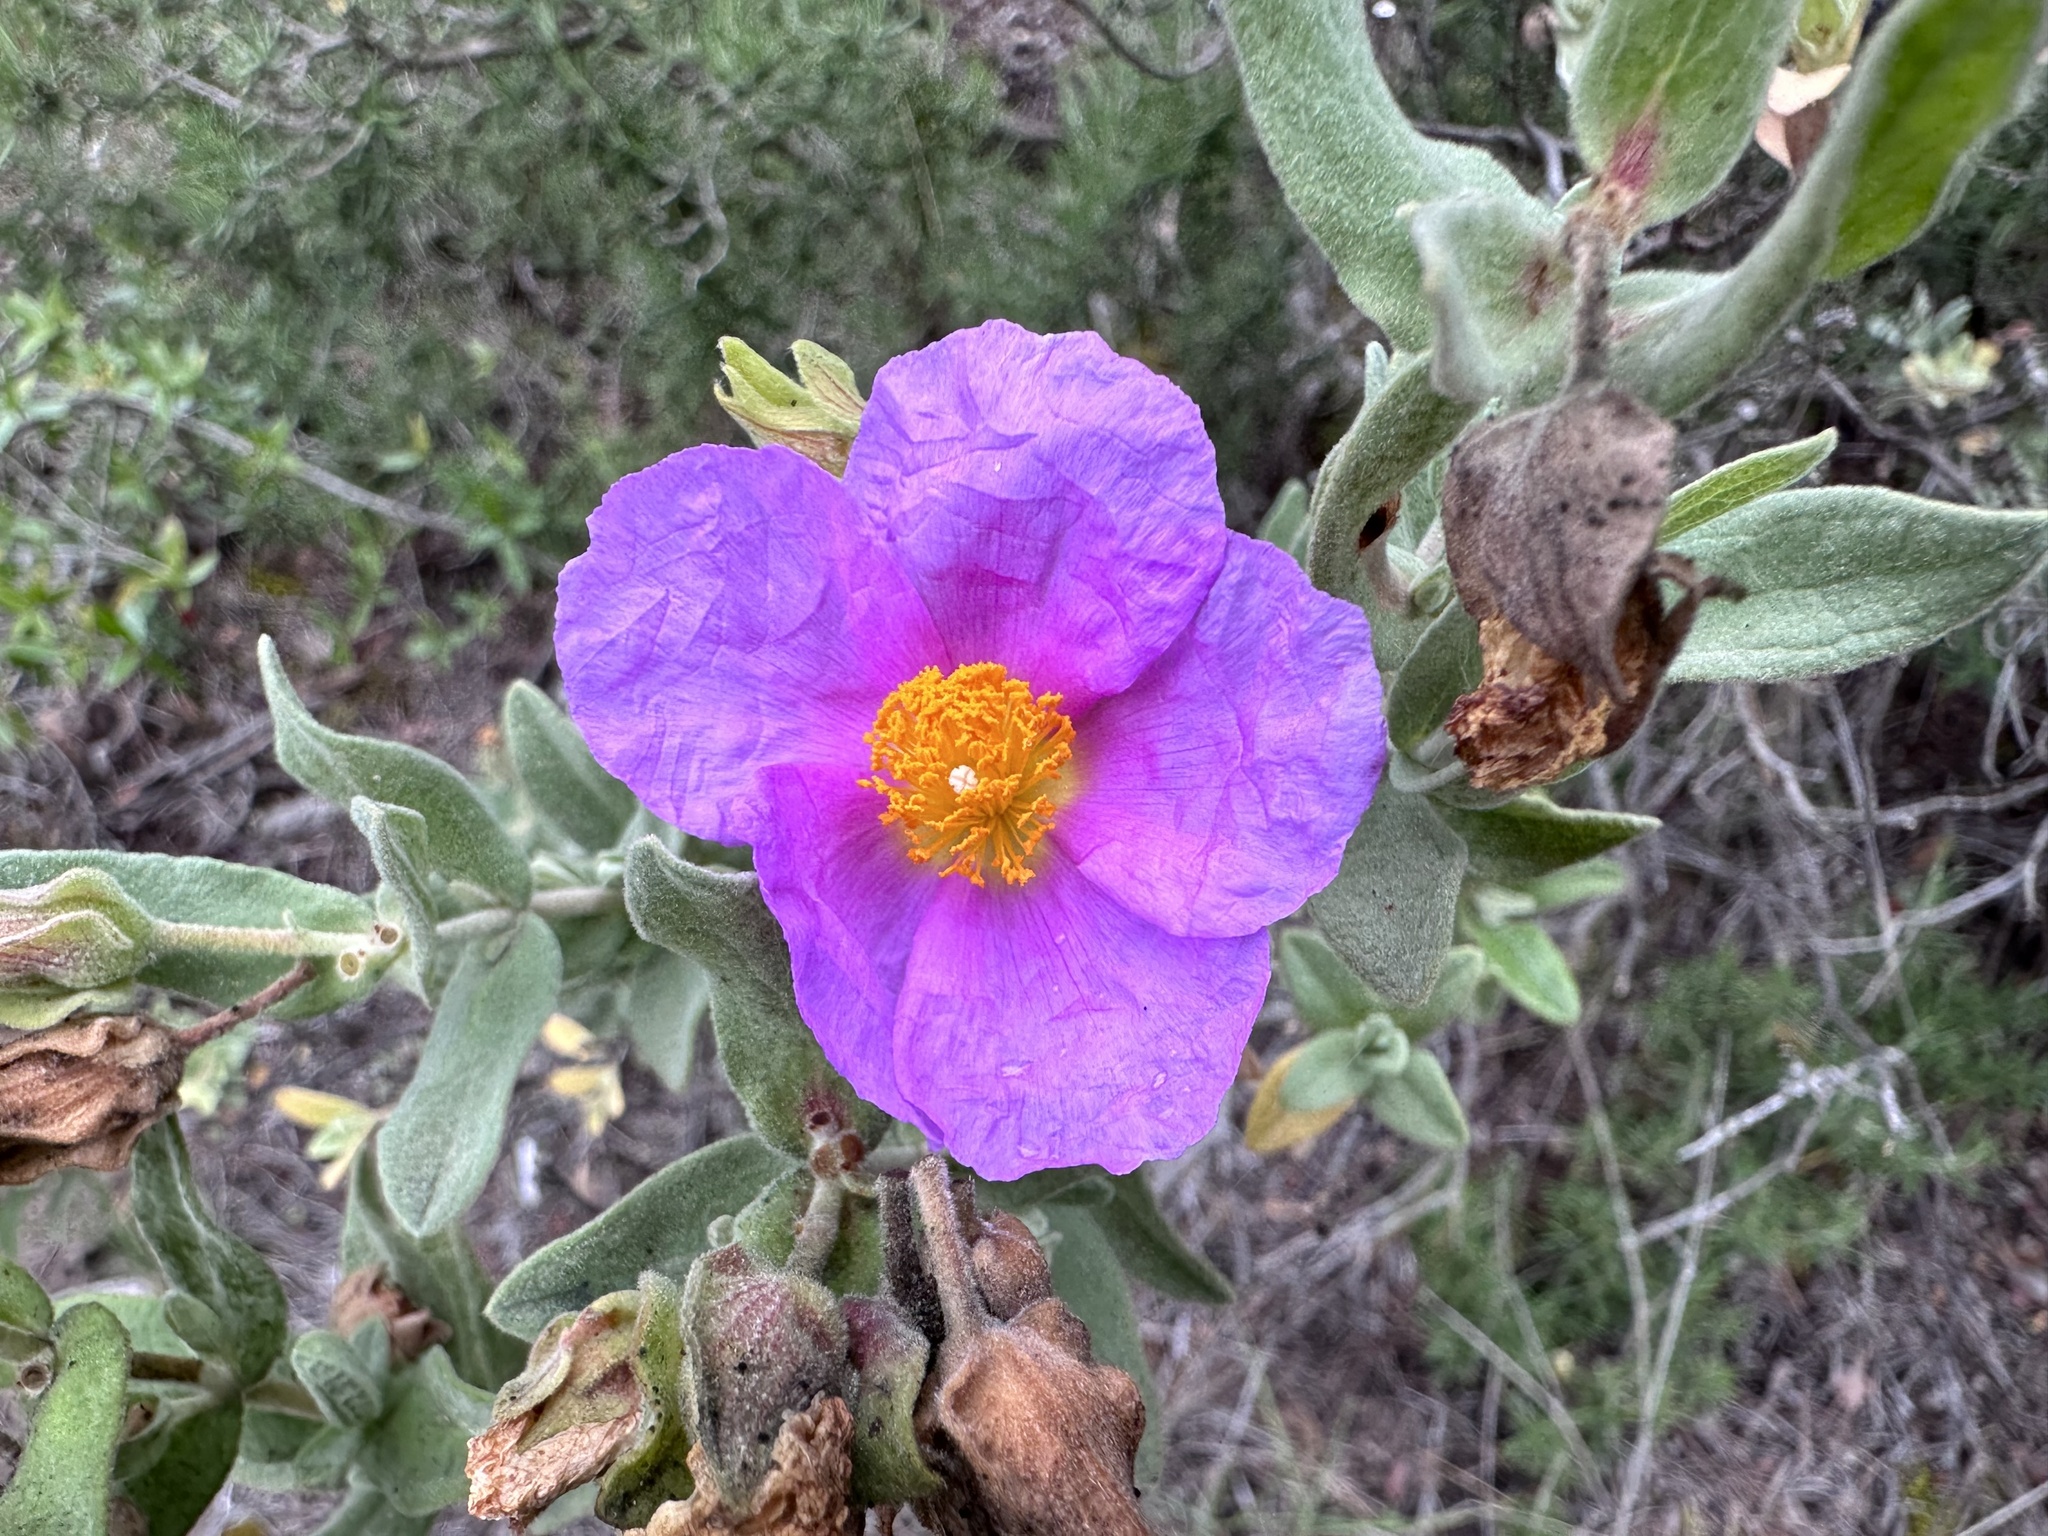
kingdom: Plantae
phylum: Tracheophyta
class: Magnoliopsida
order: Malvales
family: Cistaceae
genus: Cistus
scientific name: Cistus albidus
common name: White-leaf rock-rose
